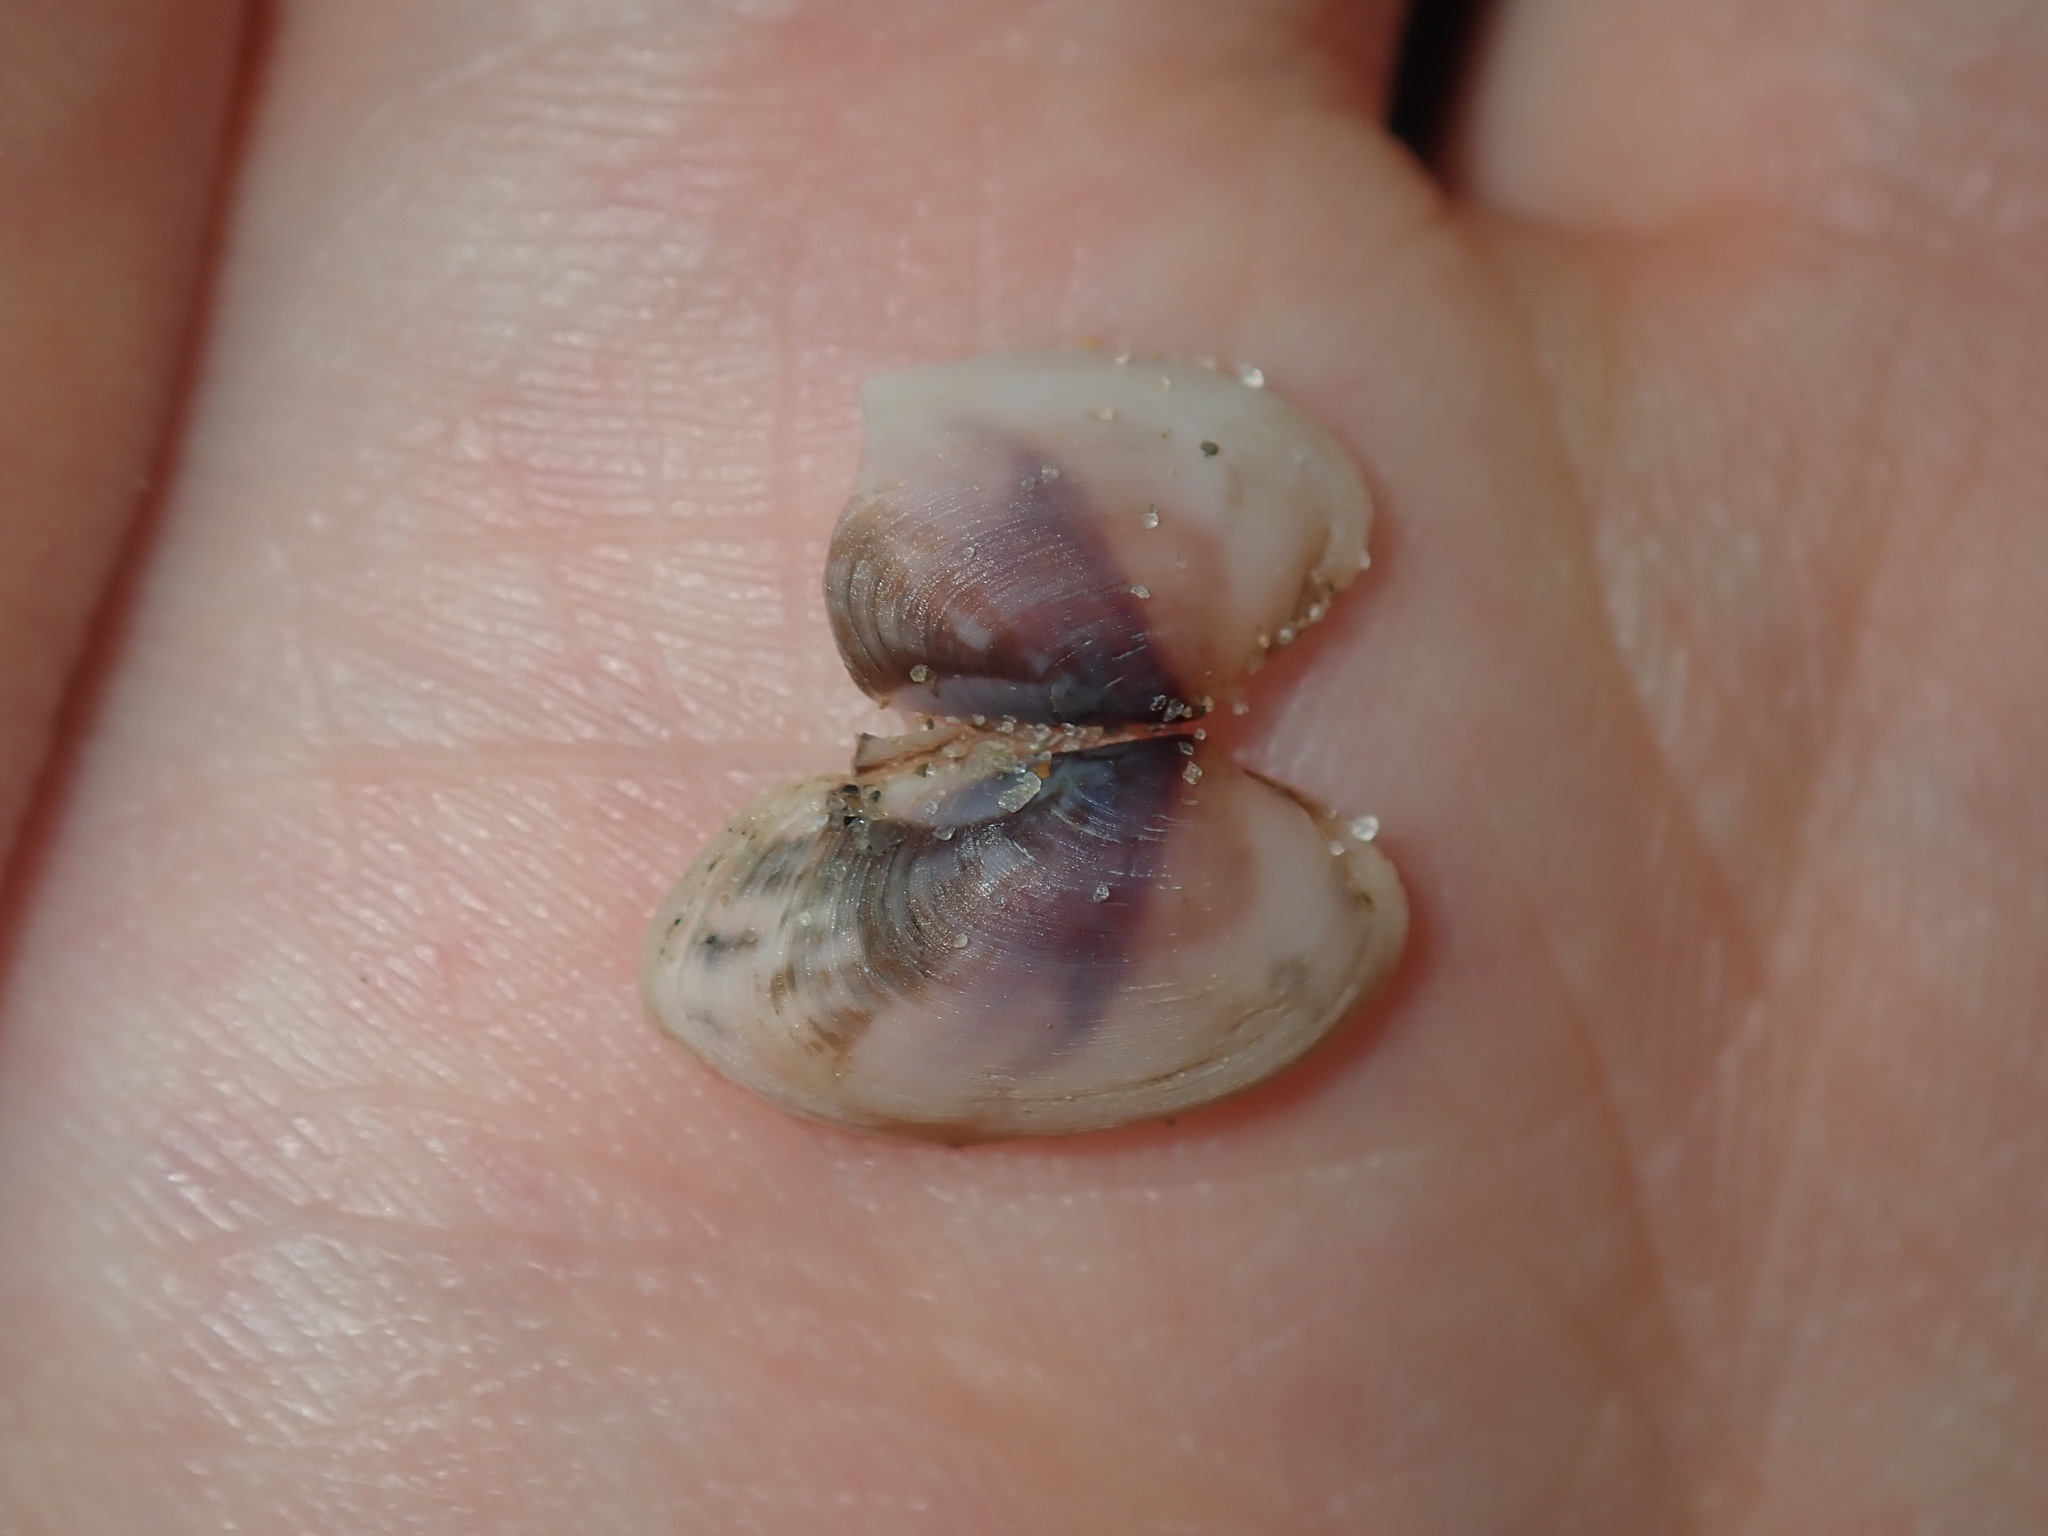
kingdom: Animalia
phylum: Mollusca
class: Bivalvia
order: Venerida
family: Veneridae
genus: Venerupis
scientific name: Venerupis anomala
